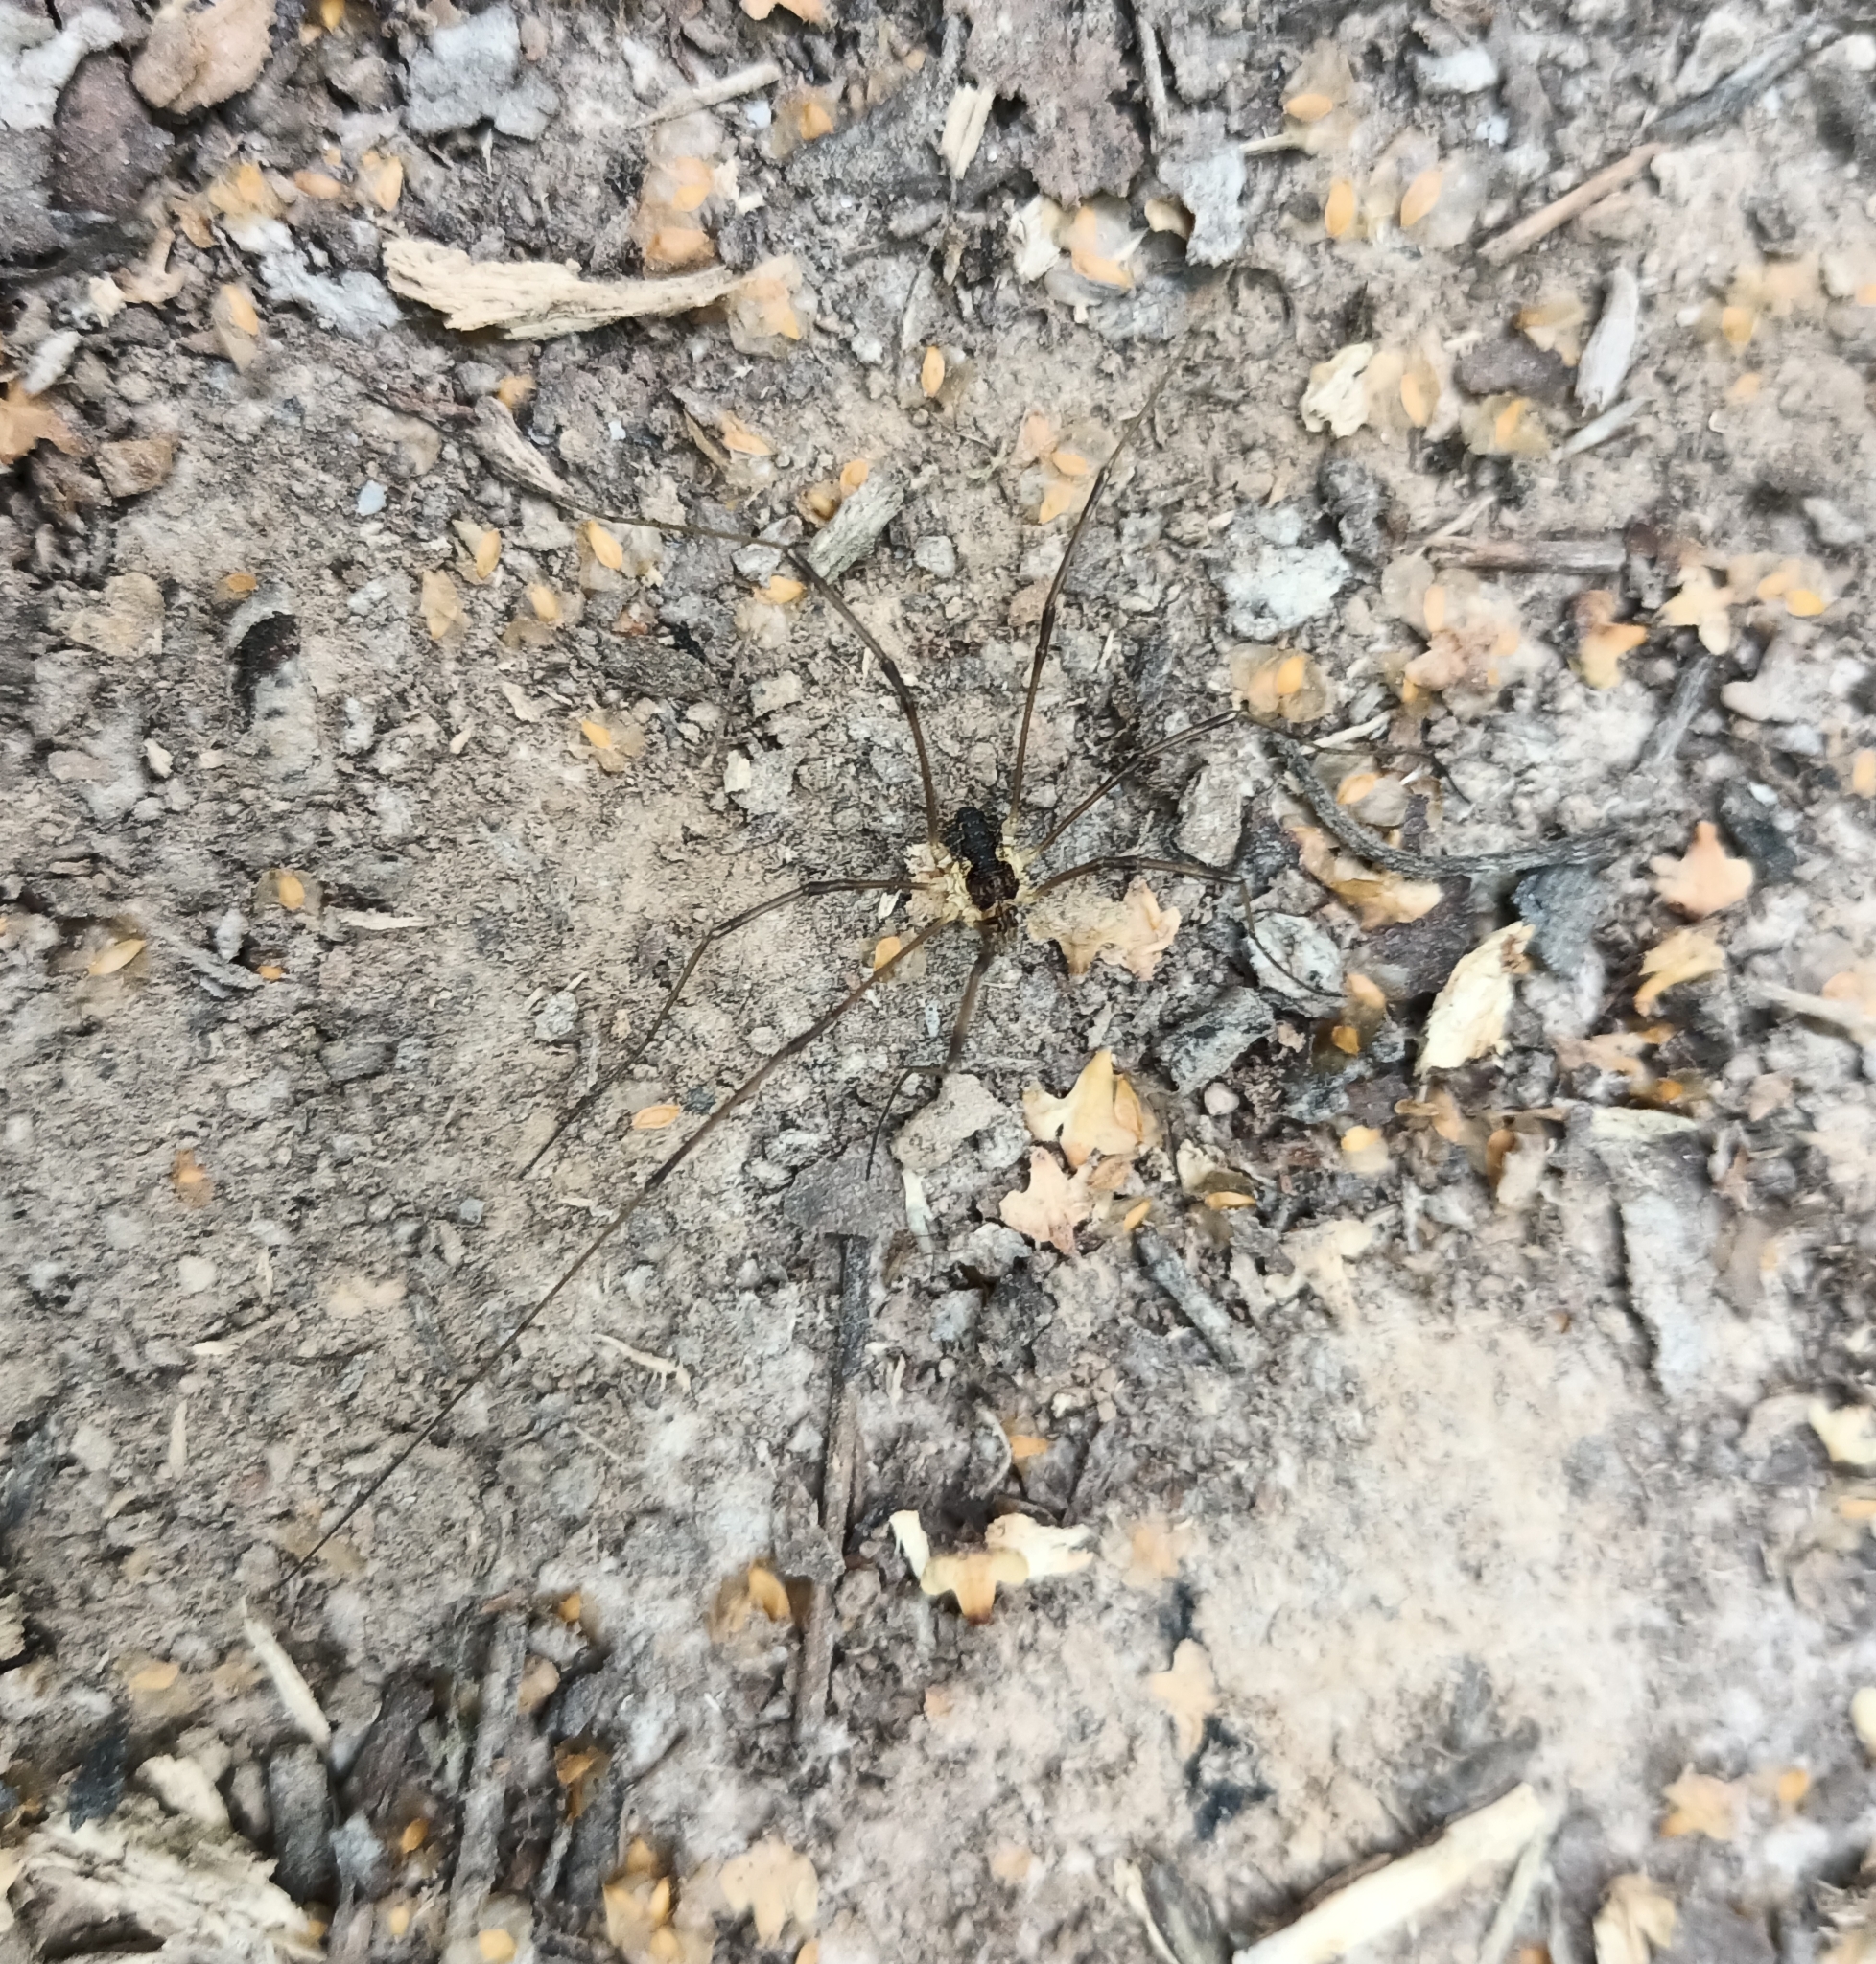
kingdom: Animalia
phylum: Arthropoda
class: Arachnida
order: Opiliones
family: Phalangiidae
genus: Mitopus
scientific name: Mitopus morio
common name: Saddleback harvestman
